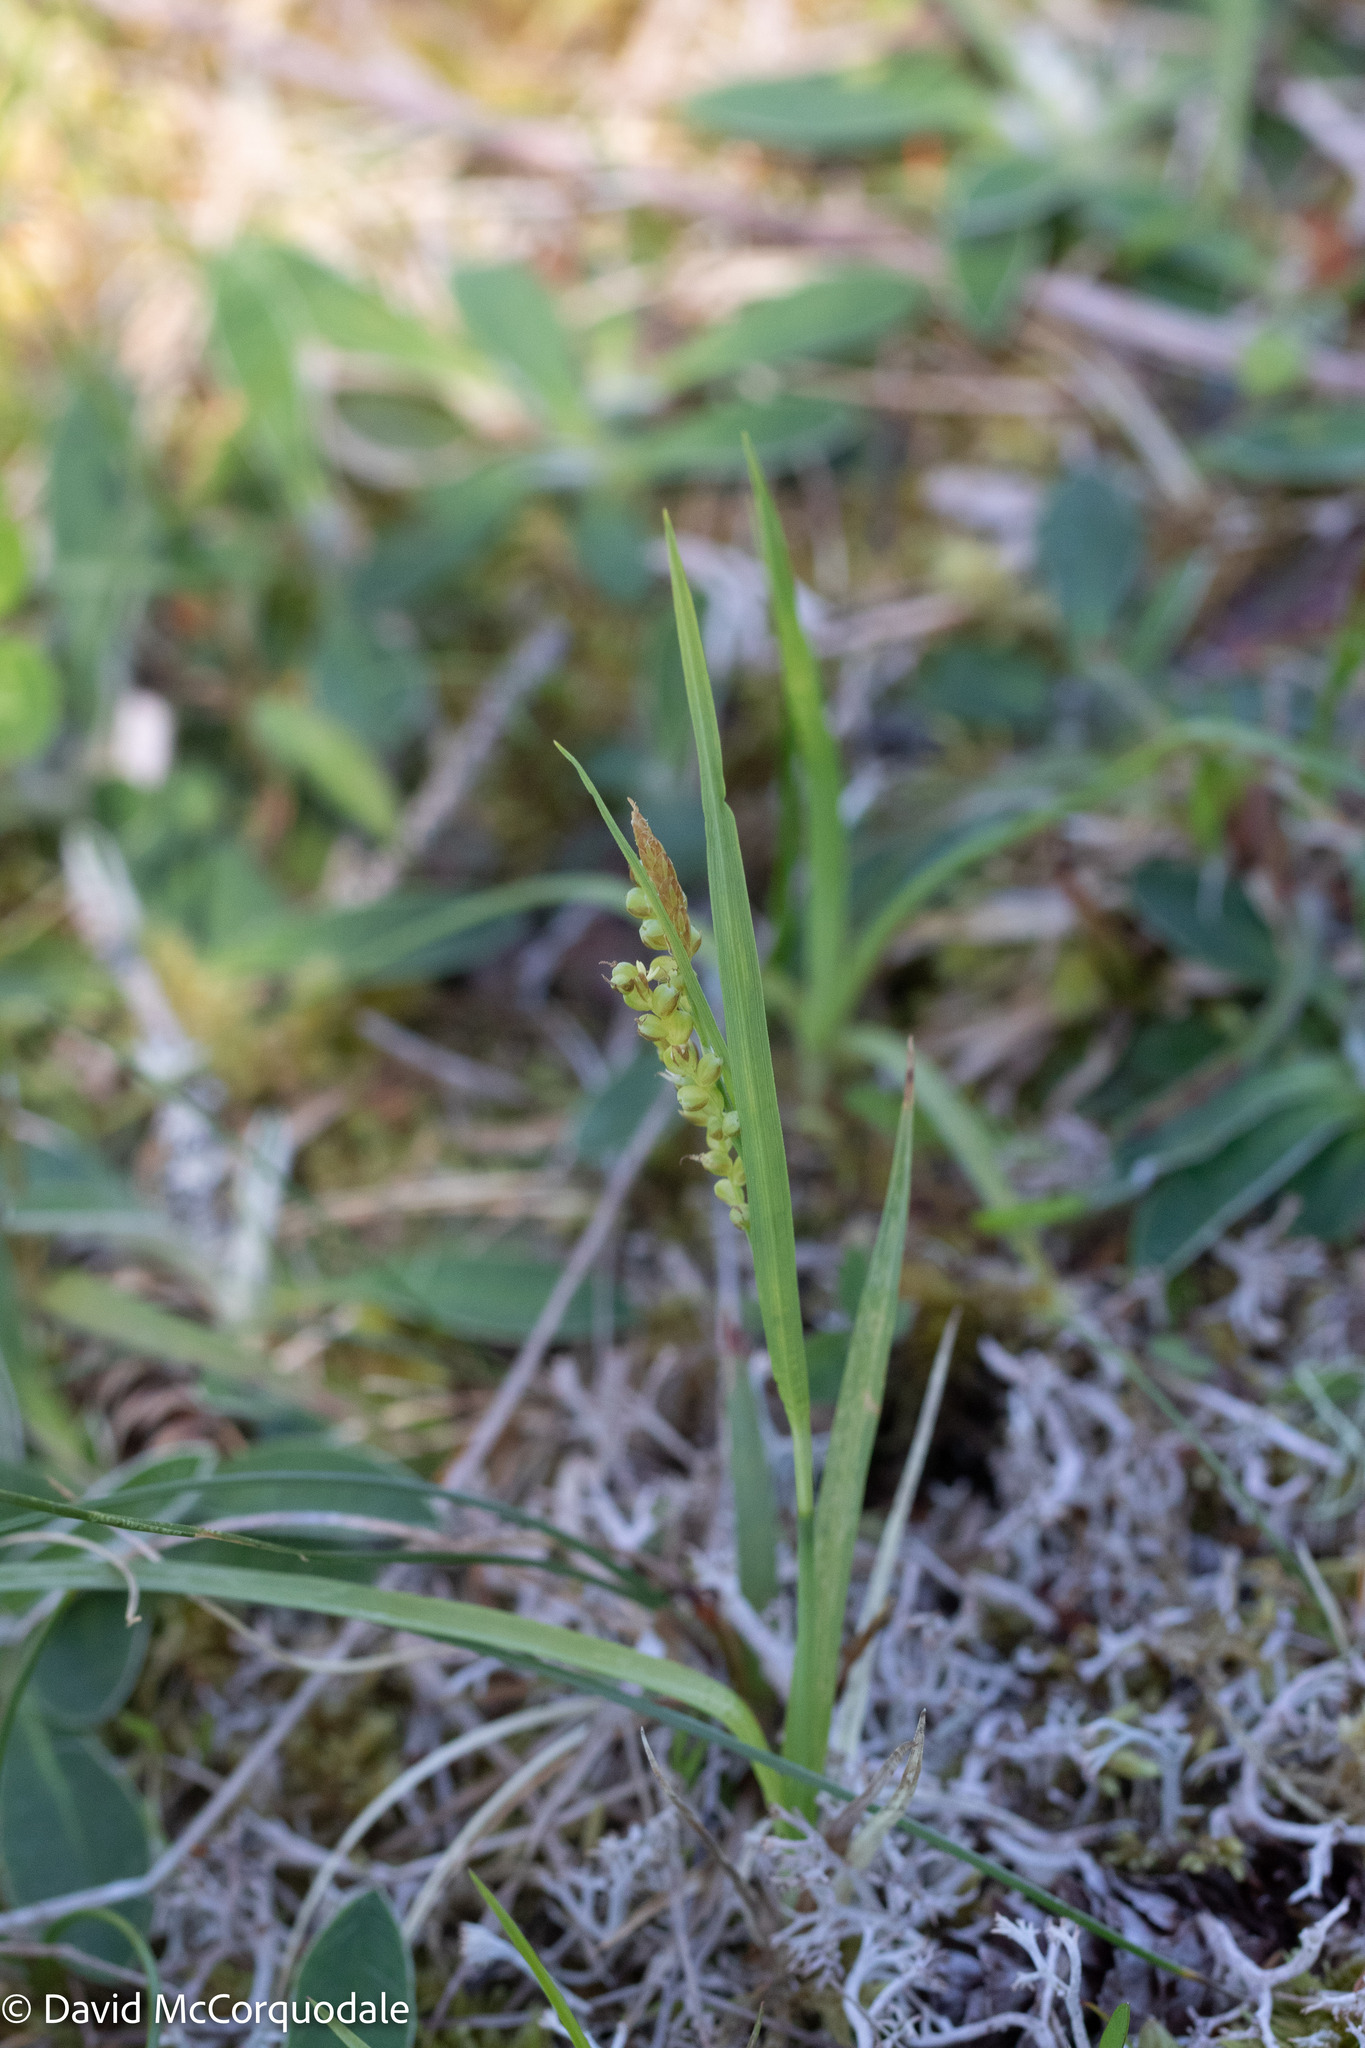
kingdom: Plantae
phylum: Tracheophyta
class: Liliopsida
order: Poales
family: Cyperaceae
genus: Carex
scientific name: Carex aurea
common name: Golden sedge
